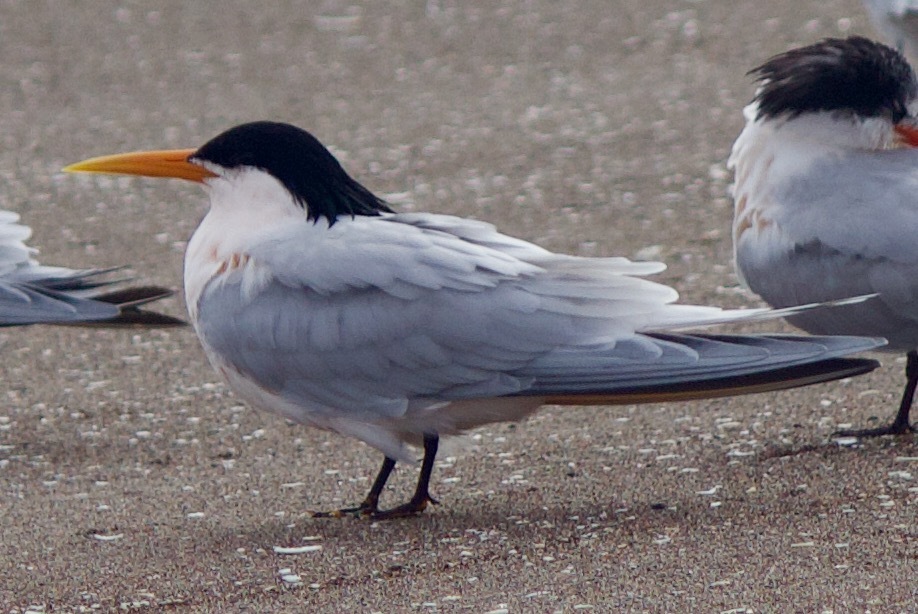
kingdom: Animalia
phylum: Chordata
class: Aves
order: Charadriiformes
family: Laridae
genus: Thalasseus
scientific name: Thalasseus elegans
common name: Elegant tern
